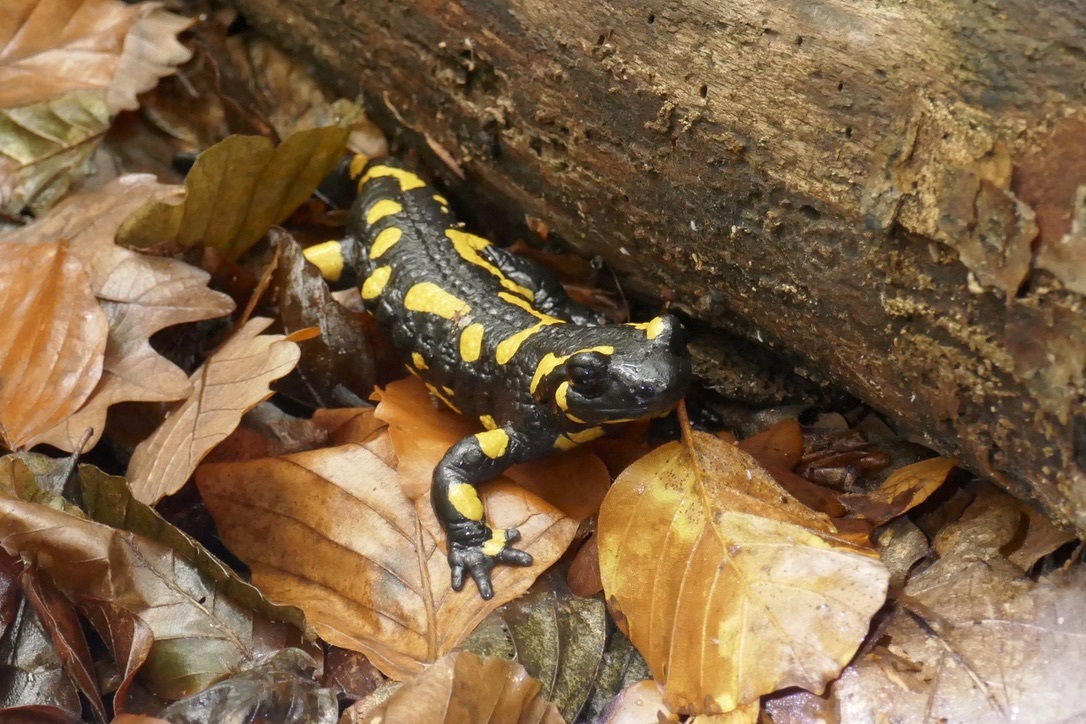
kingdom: Animalia
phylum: Chordata
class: Amphibia
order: Caudata
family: Salamandridae
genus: Salamandra
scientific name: Salamandra salamandra
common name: Fire salamander
